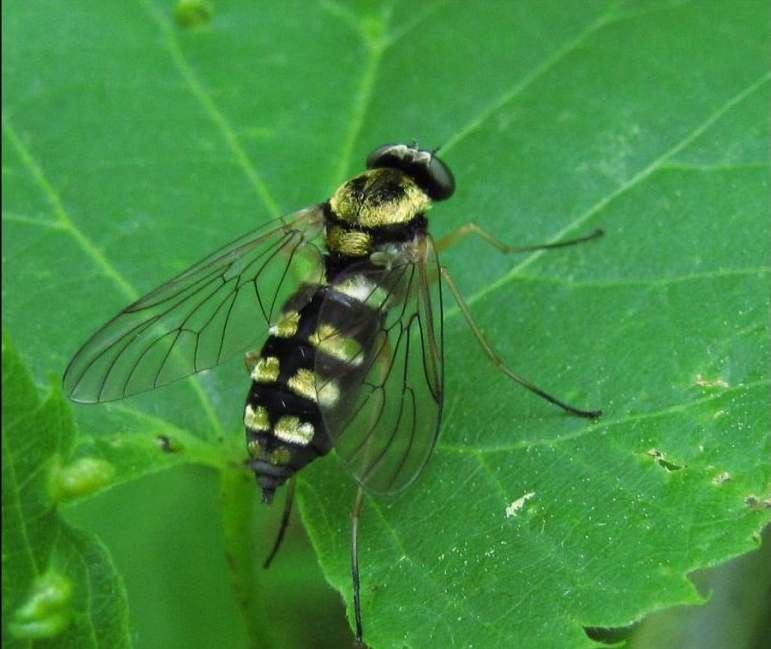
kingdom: Animalia
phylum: Arthropoda
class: Insecta
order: Diptera
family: Rhagionidae
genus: Chrysopilus
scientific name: Chrysopilus ornatus
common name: Ornate snipe fly
